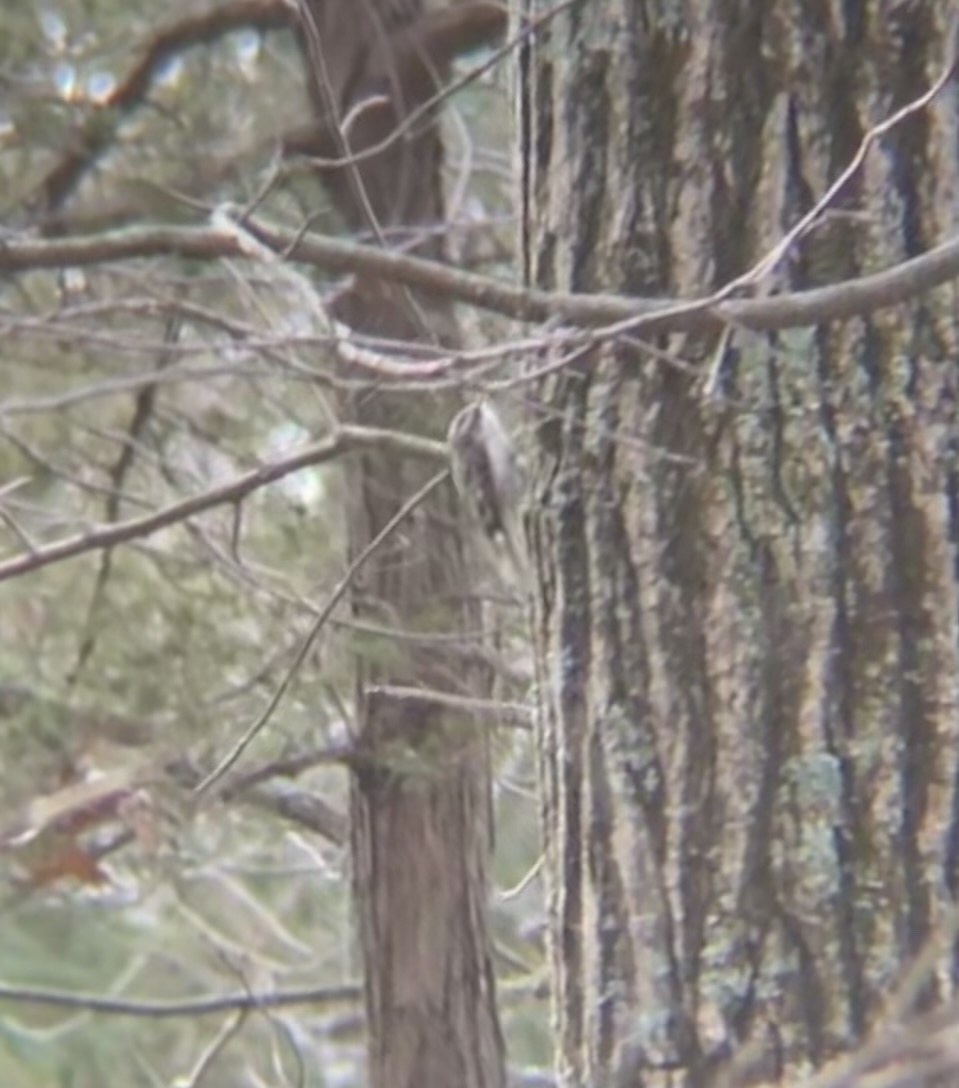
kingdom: Animalia
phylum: Chordata
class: Aves
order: Passeriformes
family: Certhiidae
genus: Certhia
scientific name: Certhia americana
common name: Brown creeper
